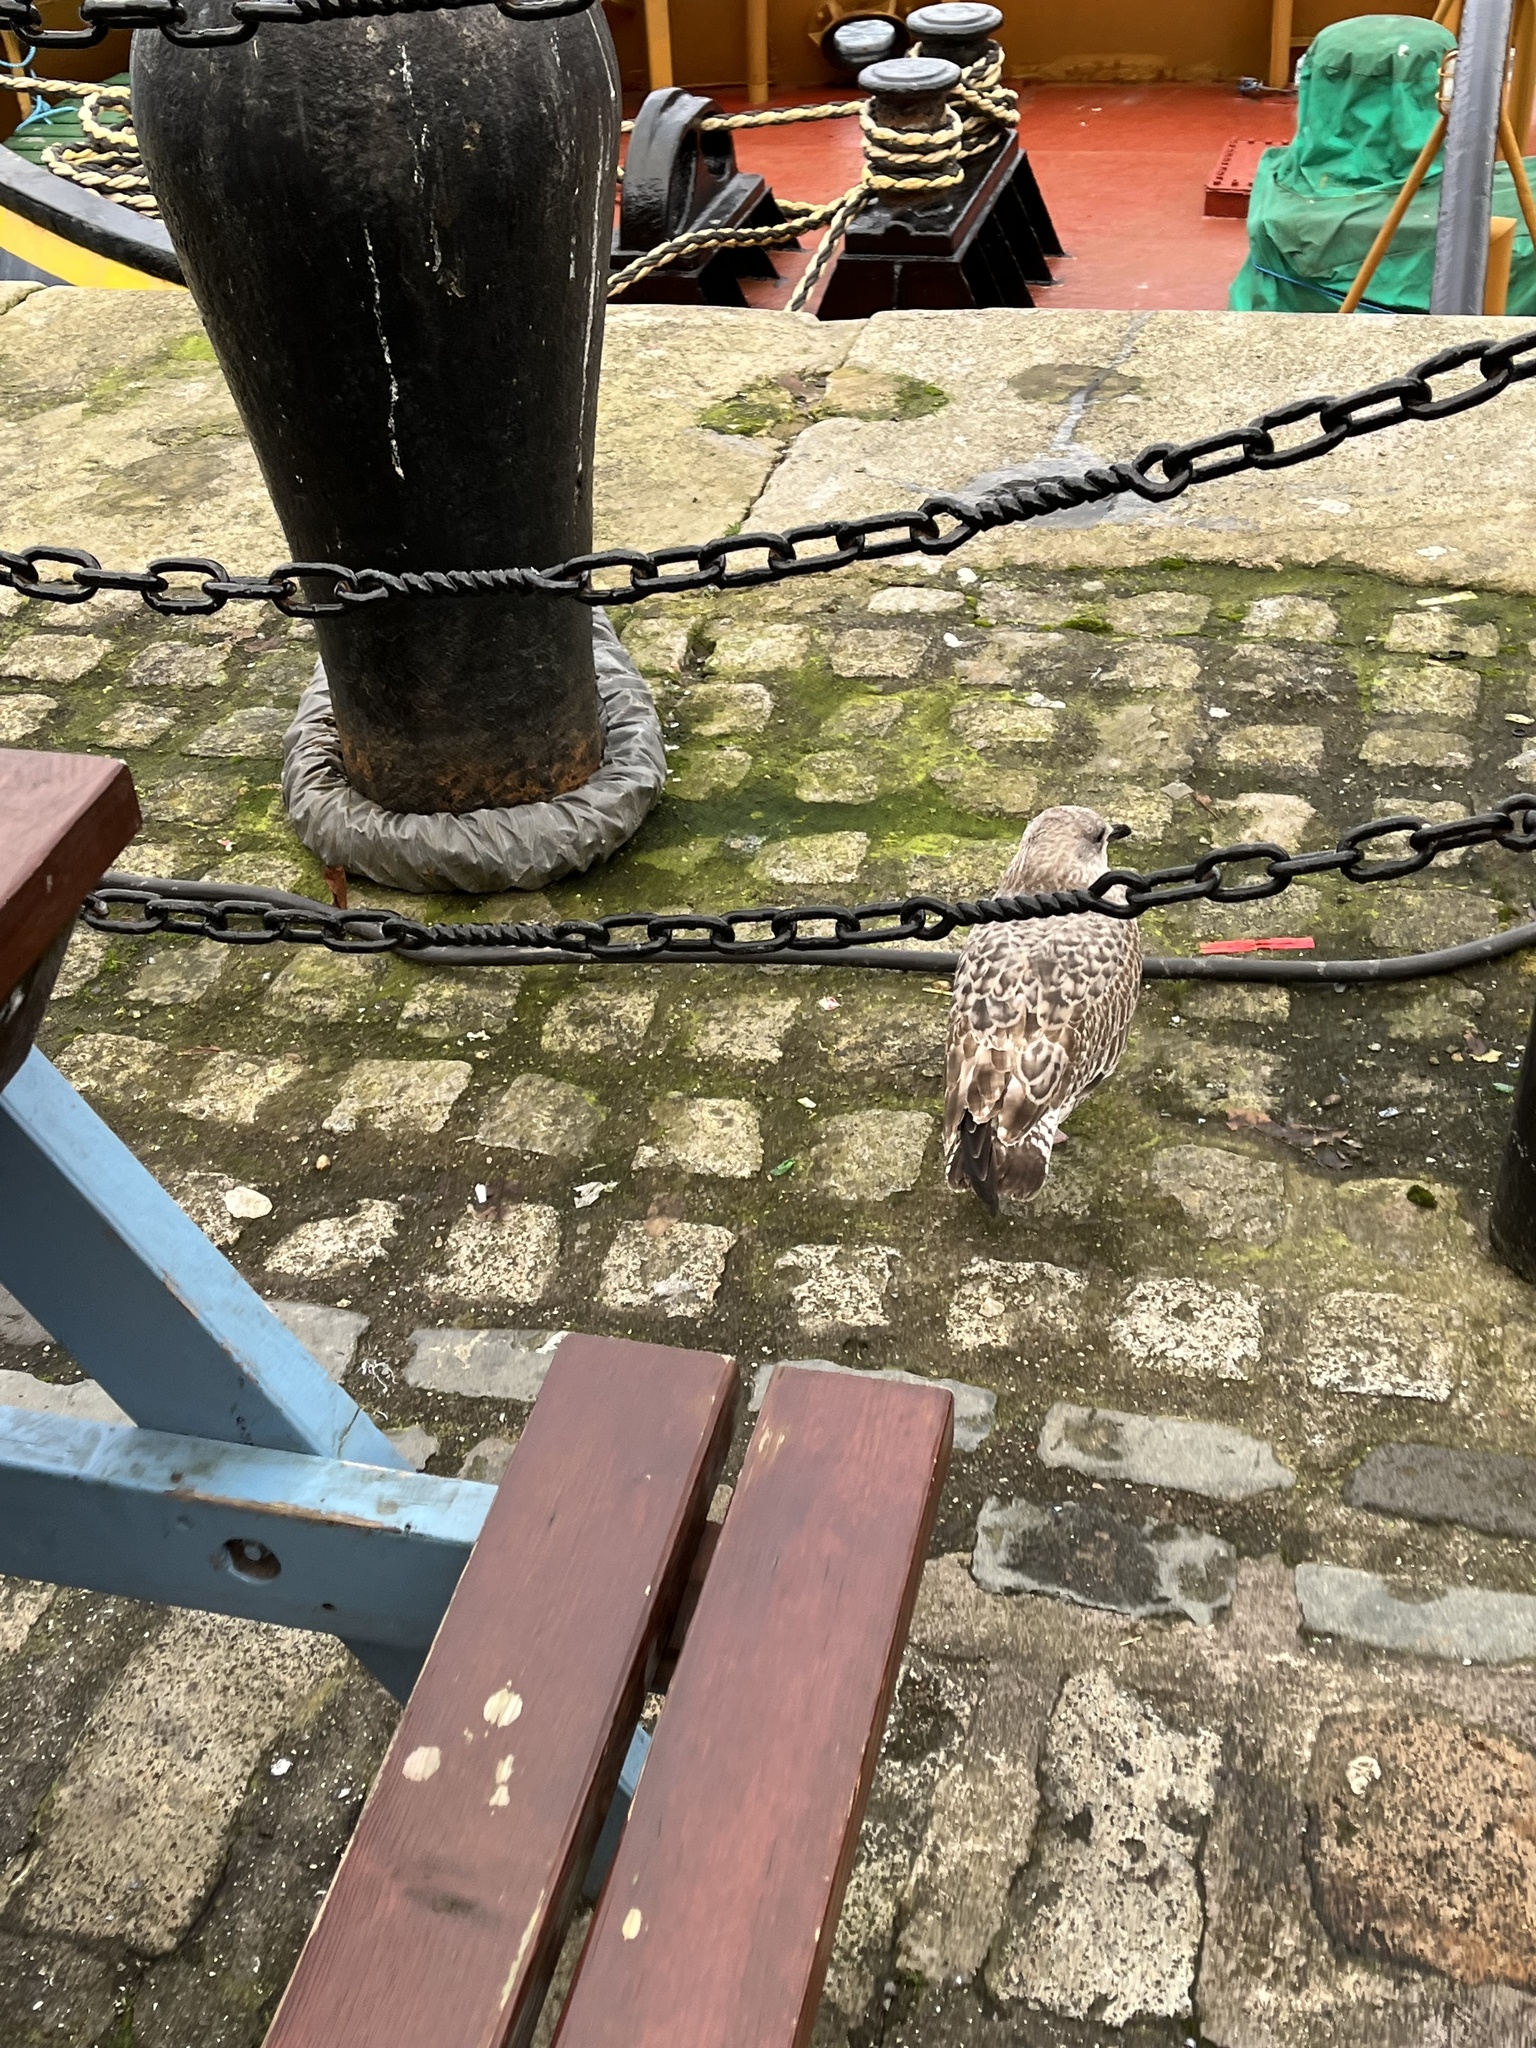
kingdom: Animalia
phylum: Chordata
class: Aves
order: Charadriiformes
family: Laridae
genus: Larus
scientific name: Larus fuscus
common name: Lesser black-backed gull
